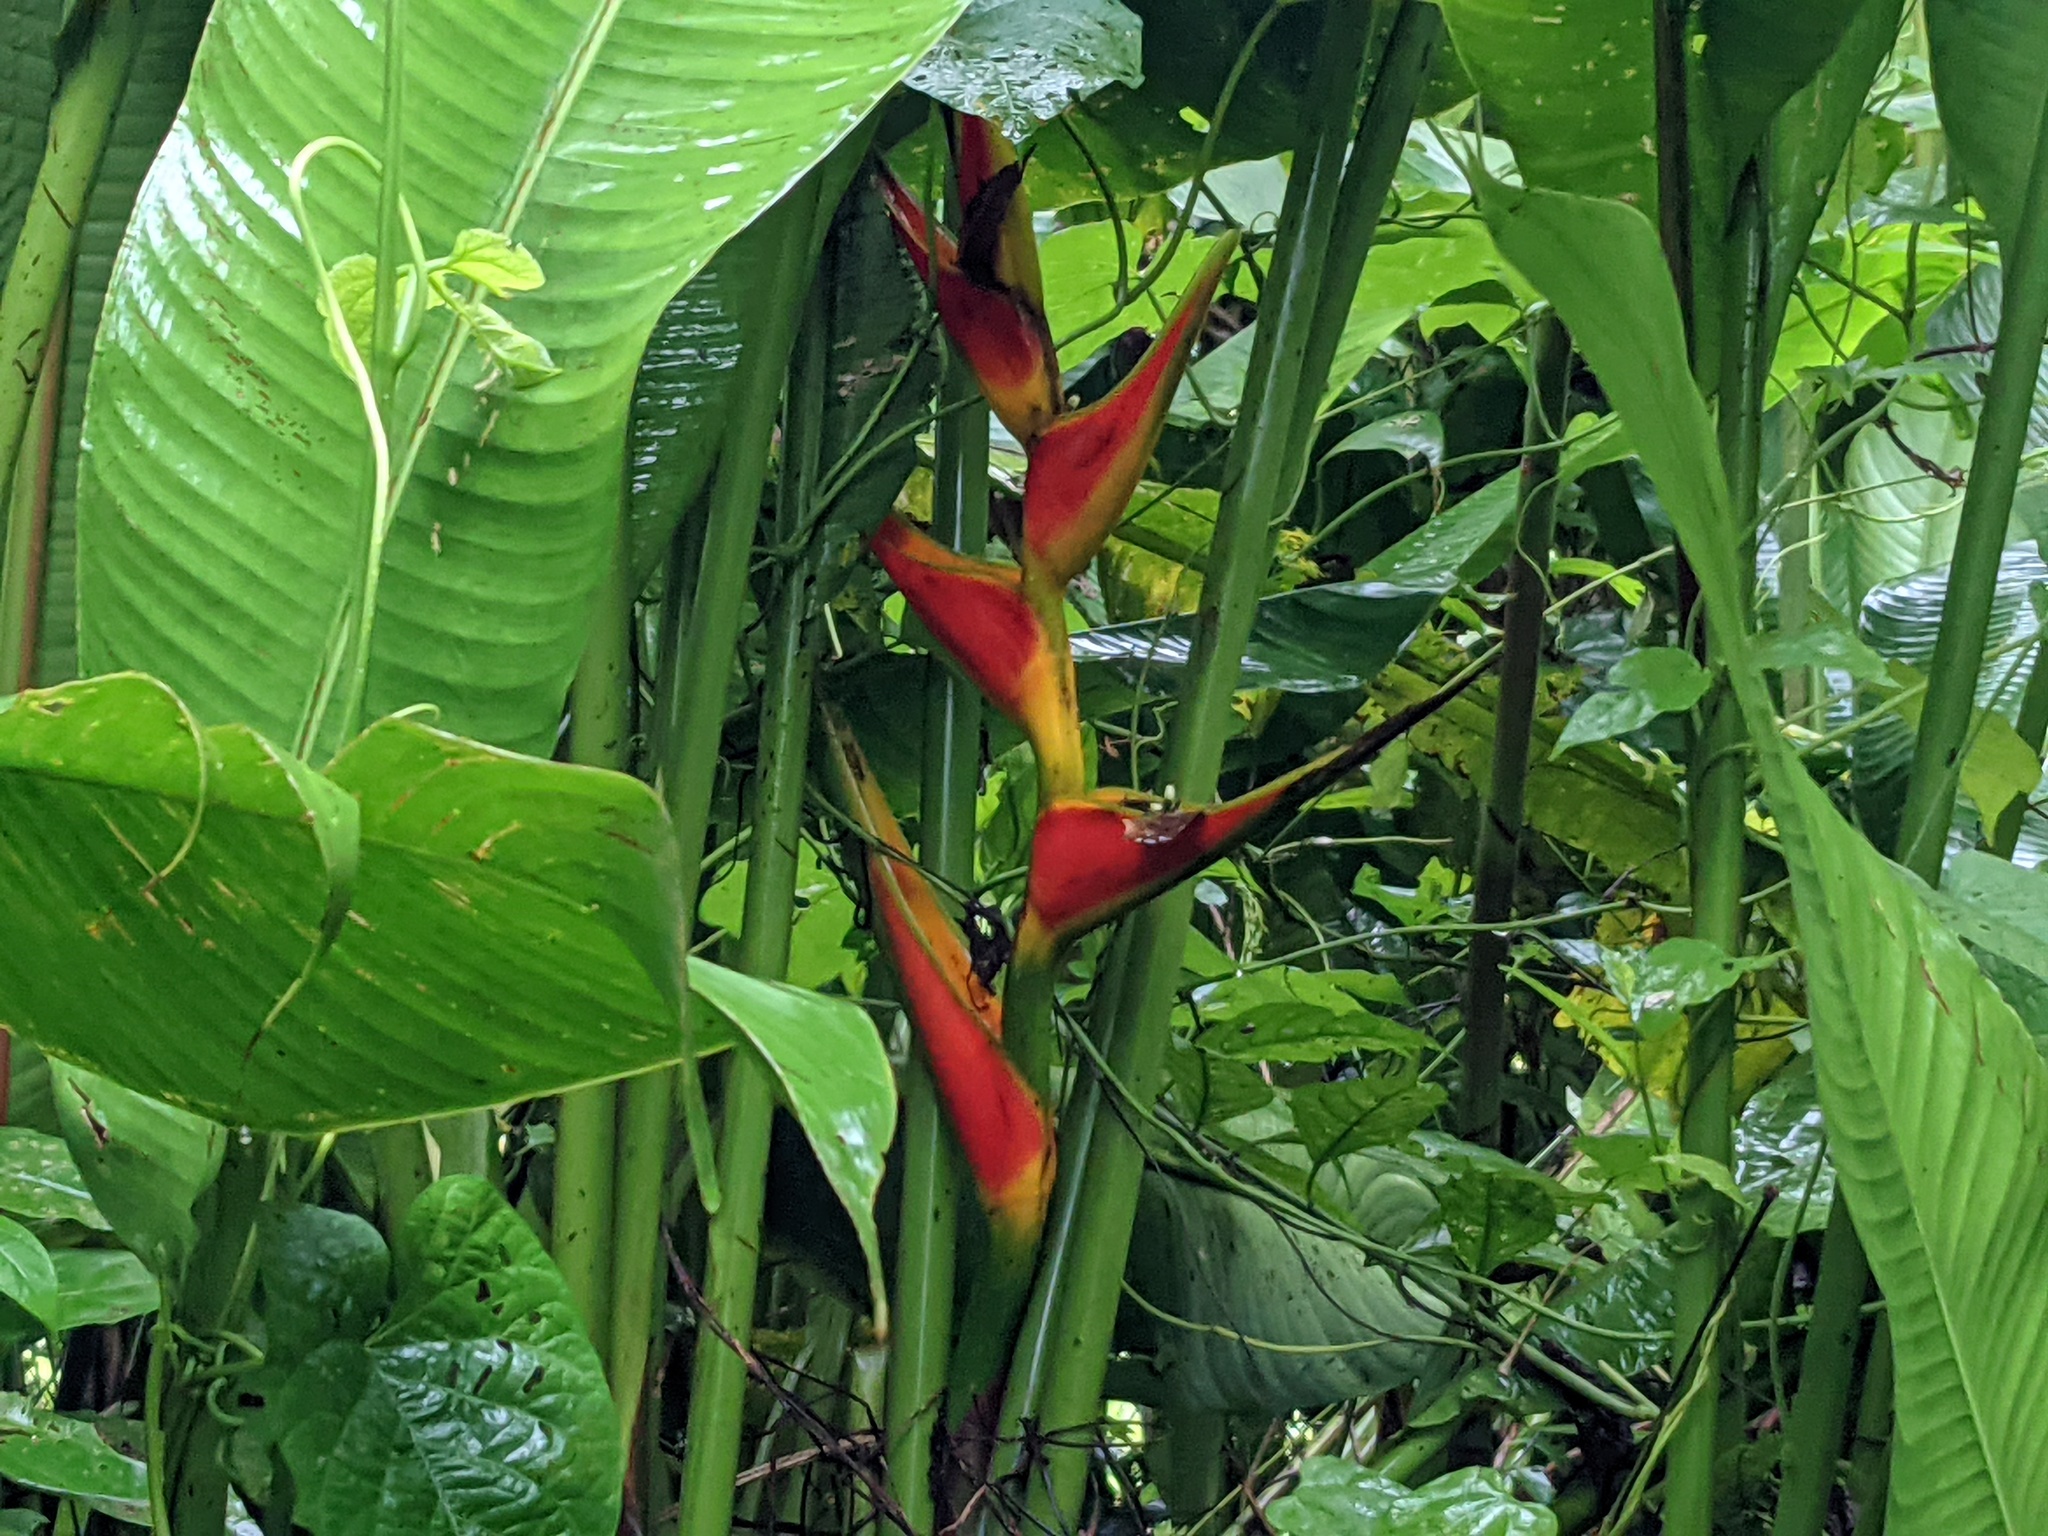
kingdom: Plantae
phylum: Tracheophyta
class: Liliopsida
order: Zingiberales
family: Heliconiaceae
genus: Heliconia
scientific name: Heliconia stricta
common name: Small lobster claw
